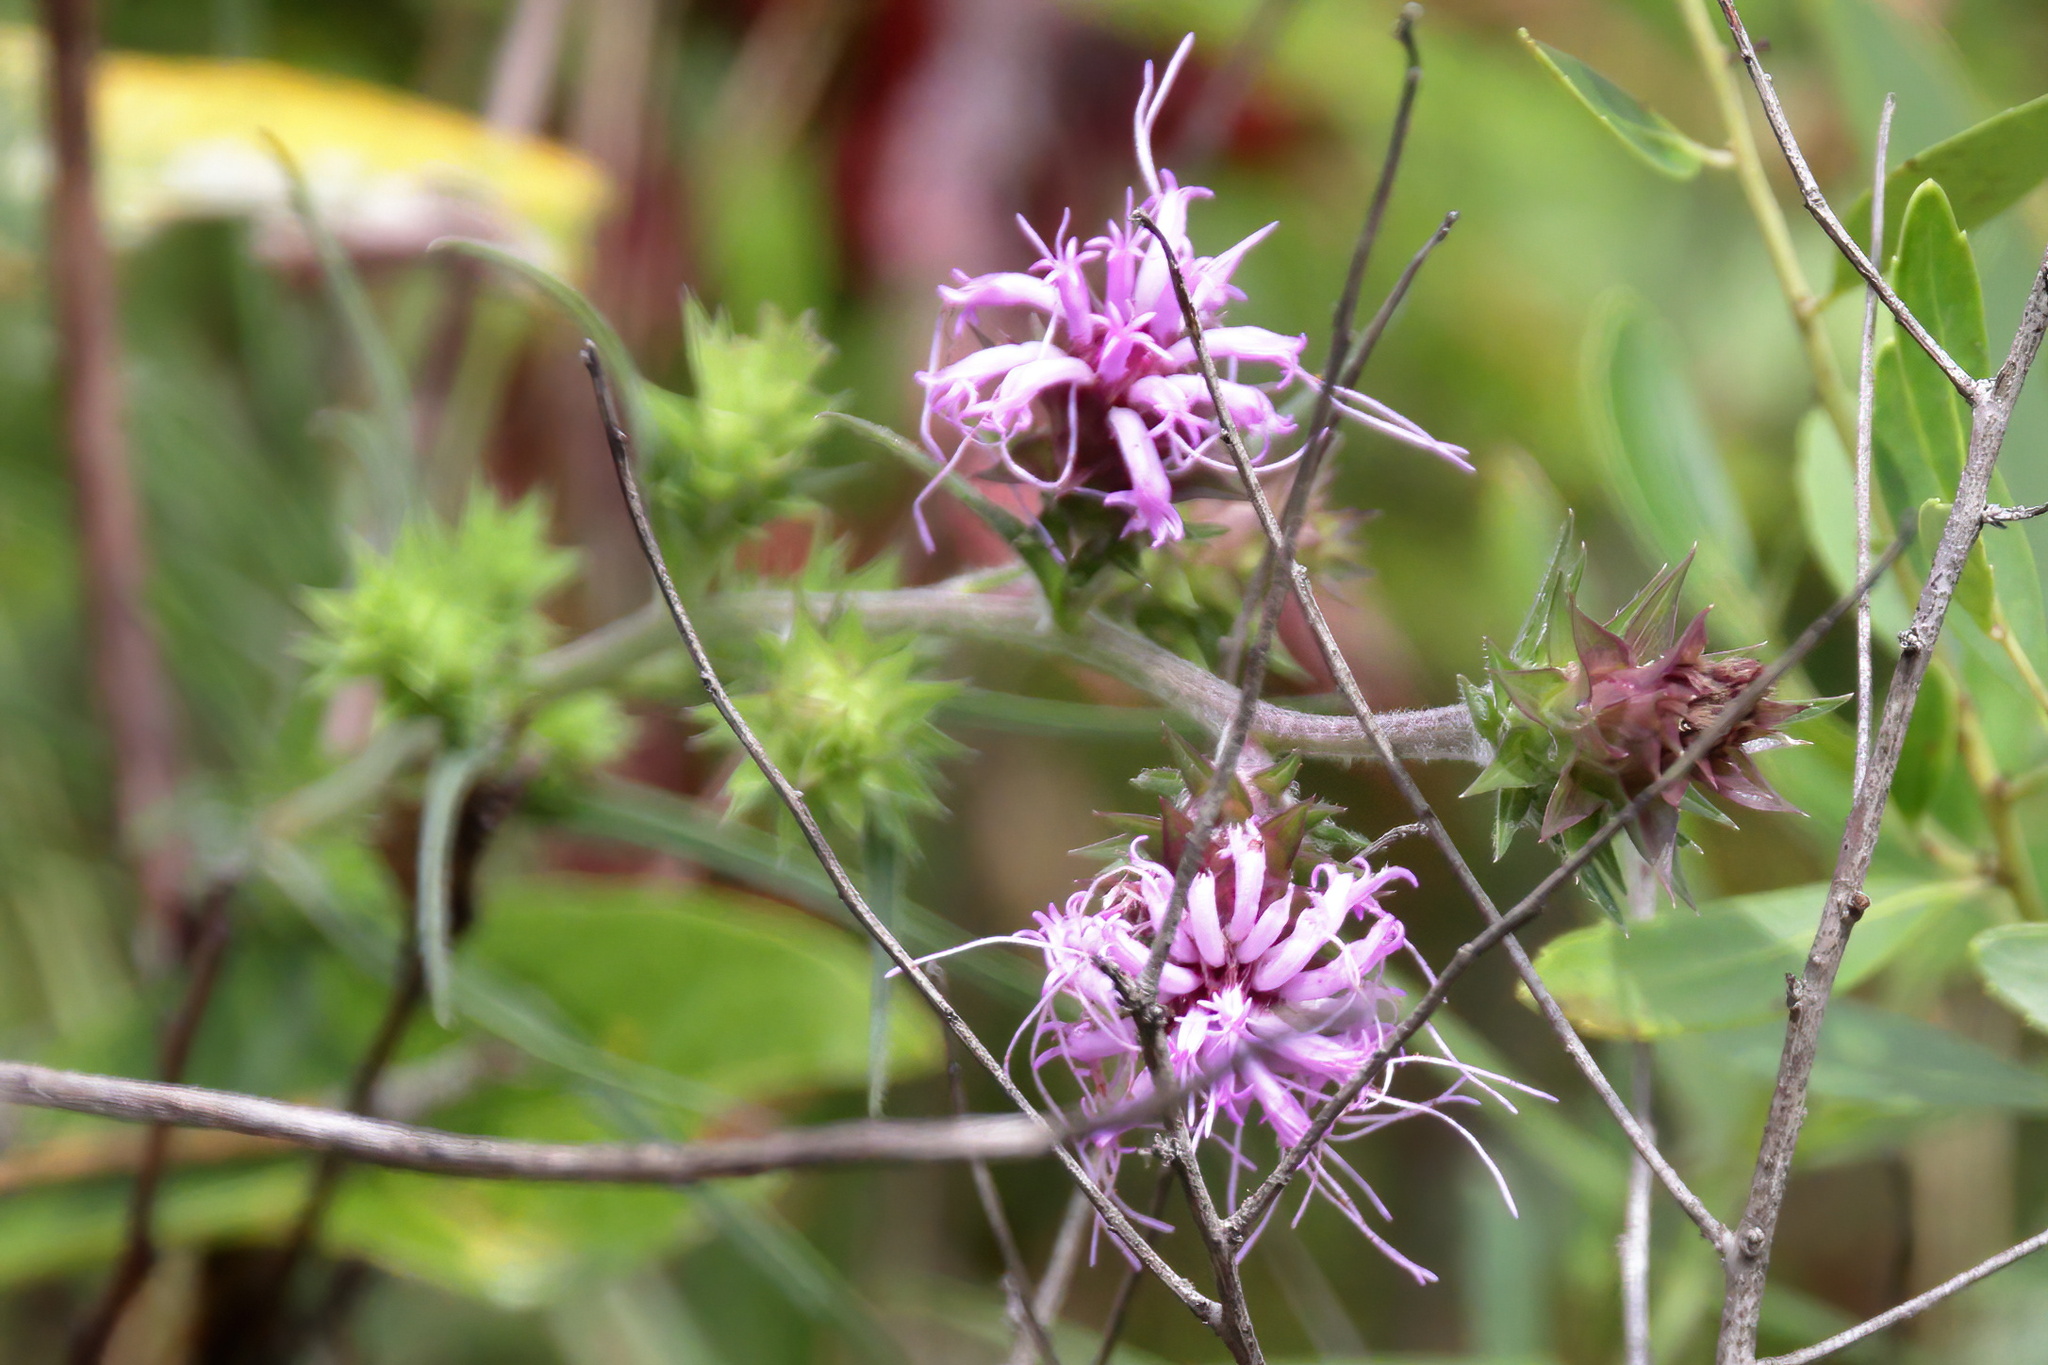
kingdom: Plantae
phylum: Tracheophyta
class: Magnoliopsida
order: Asterales
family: Asteraceae
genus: Liatris
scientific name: Liatris squarrosa
